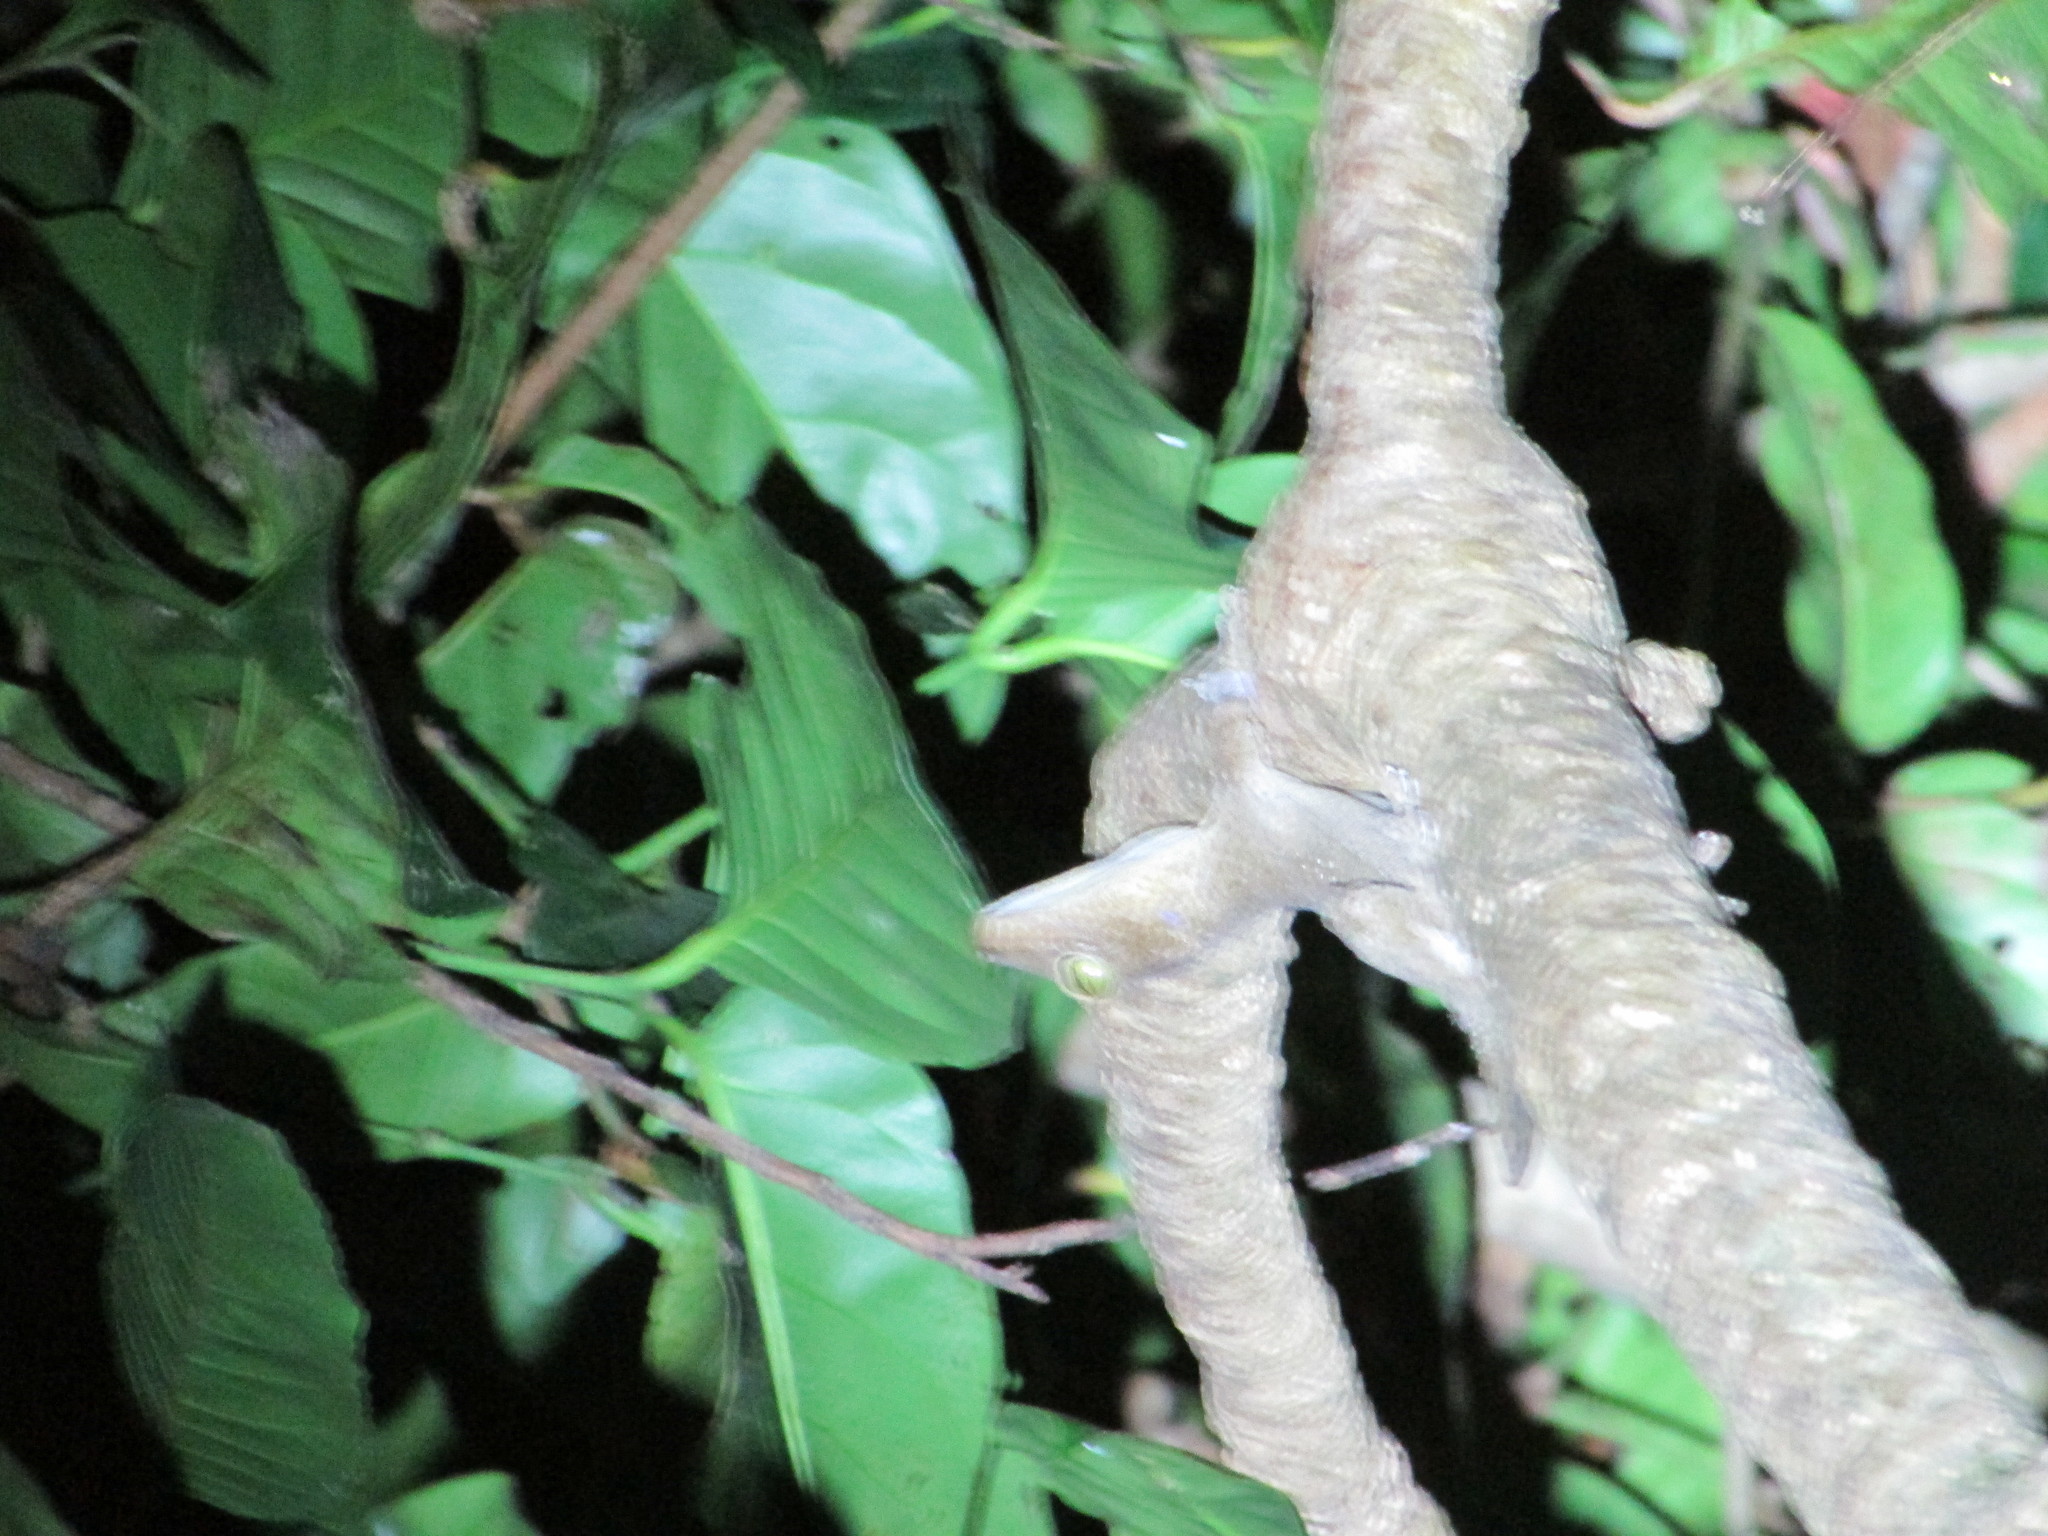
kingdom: Animalia
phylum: Chordata
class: Squamata
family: Gekkonidae
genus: Gekko
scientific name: Gekko verreauxi
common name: Andaman giant gecko
